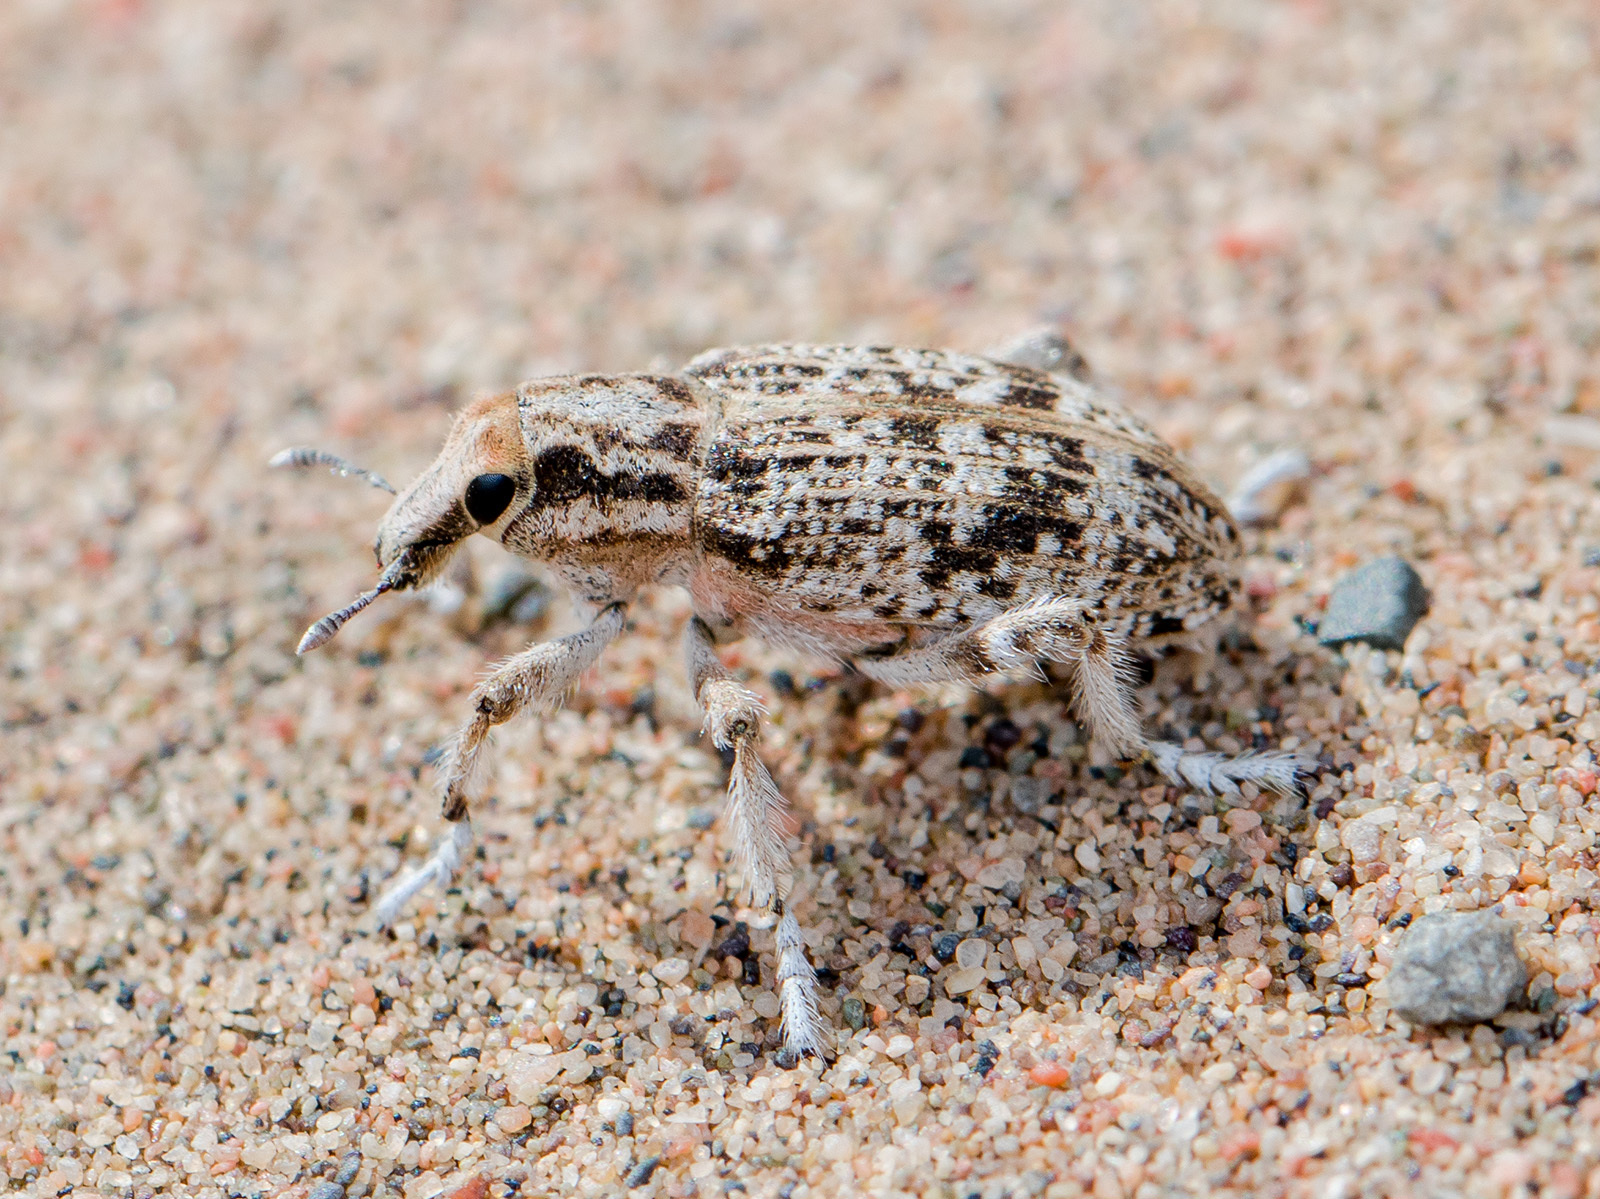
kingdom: Animalia
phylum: Arthropoda
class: Insecta
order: Coleoptera
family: Curculionidae
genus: Cleonis
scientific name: Cleonis vittata
